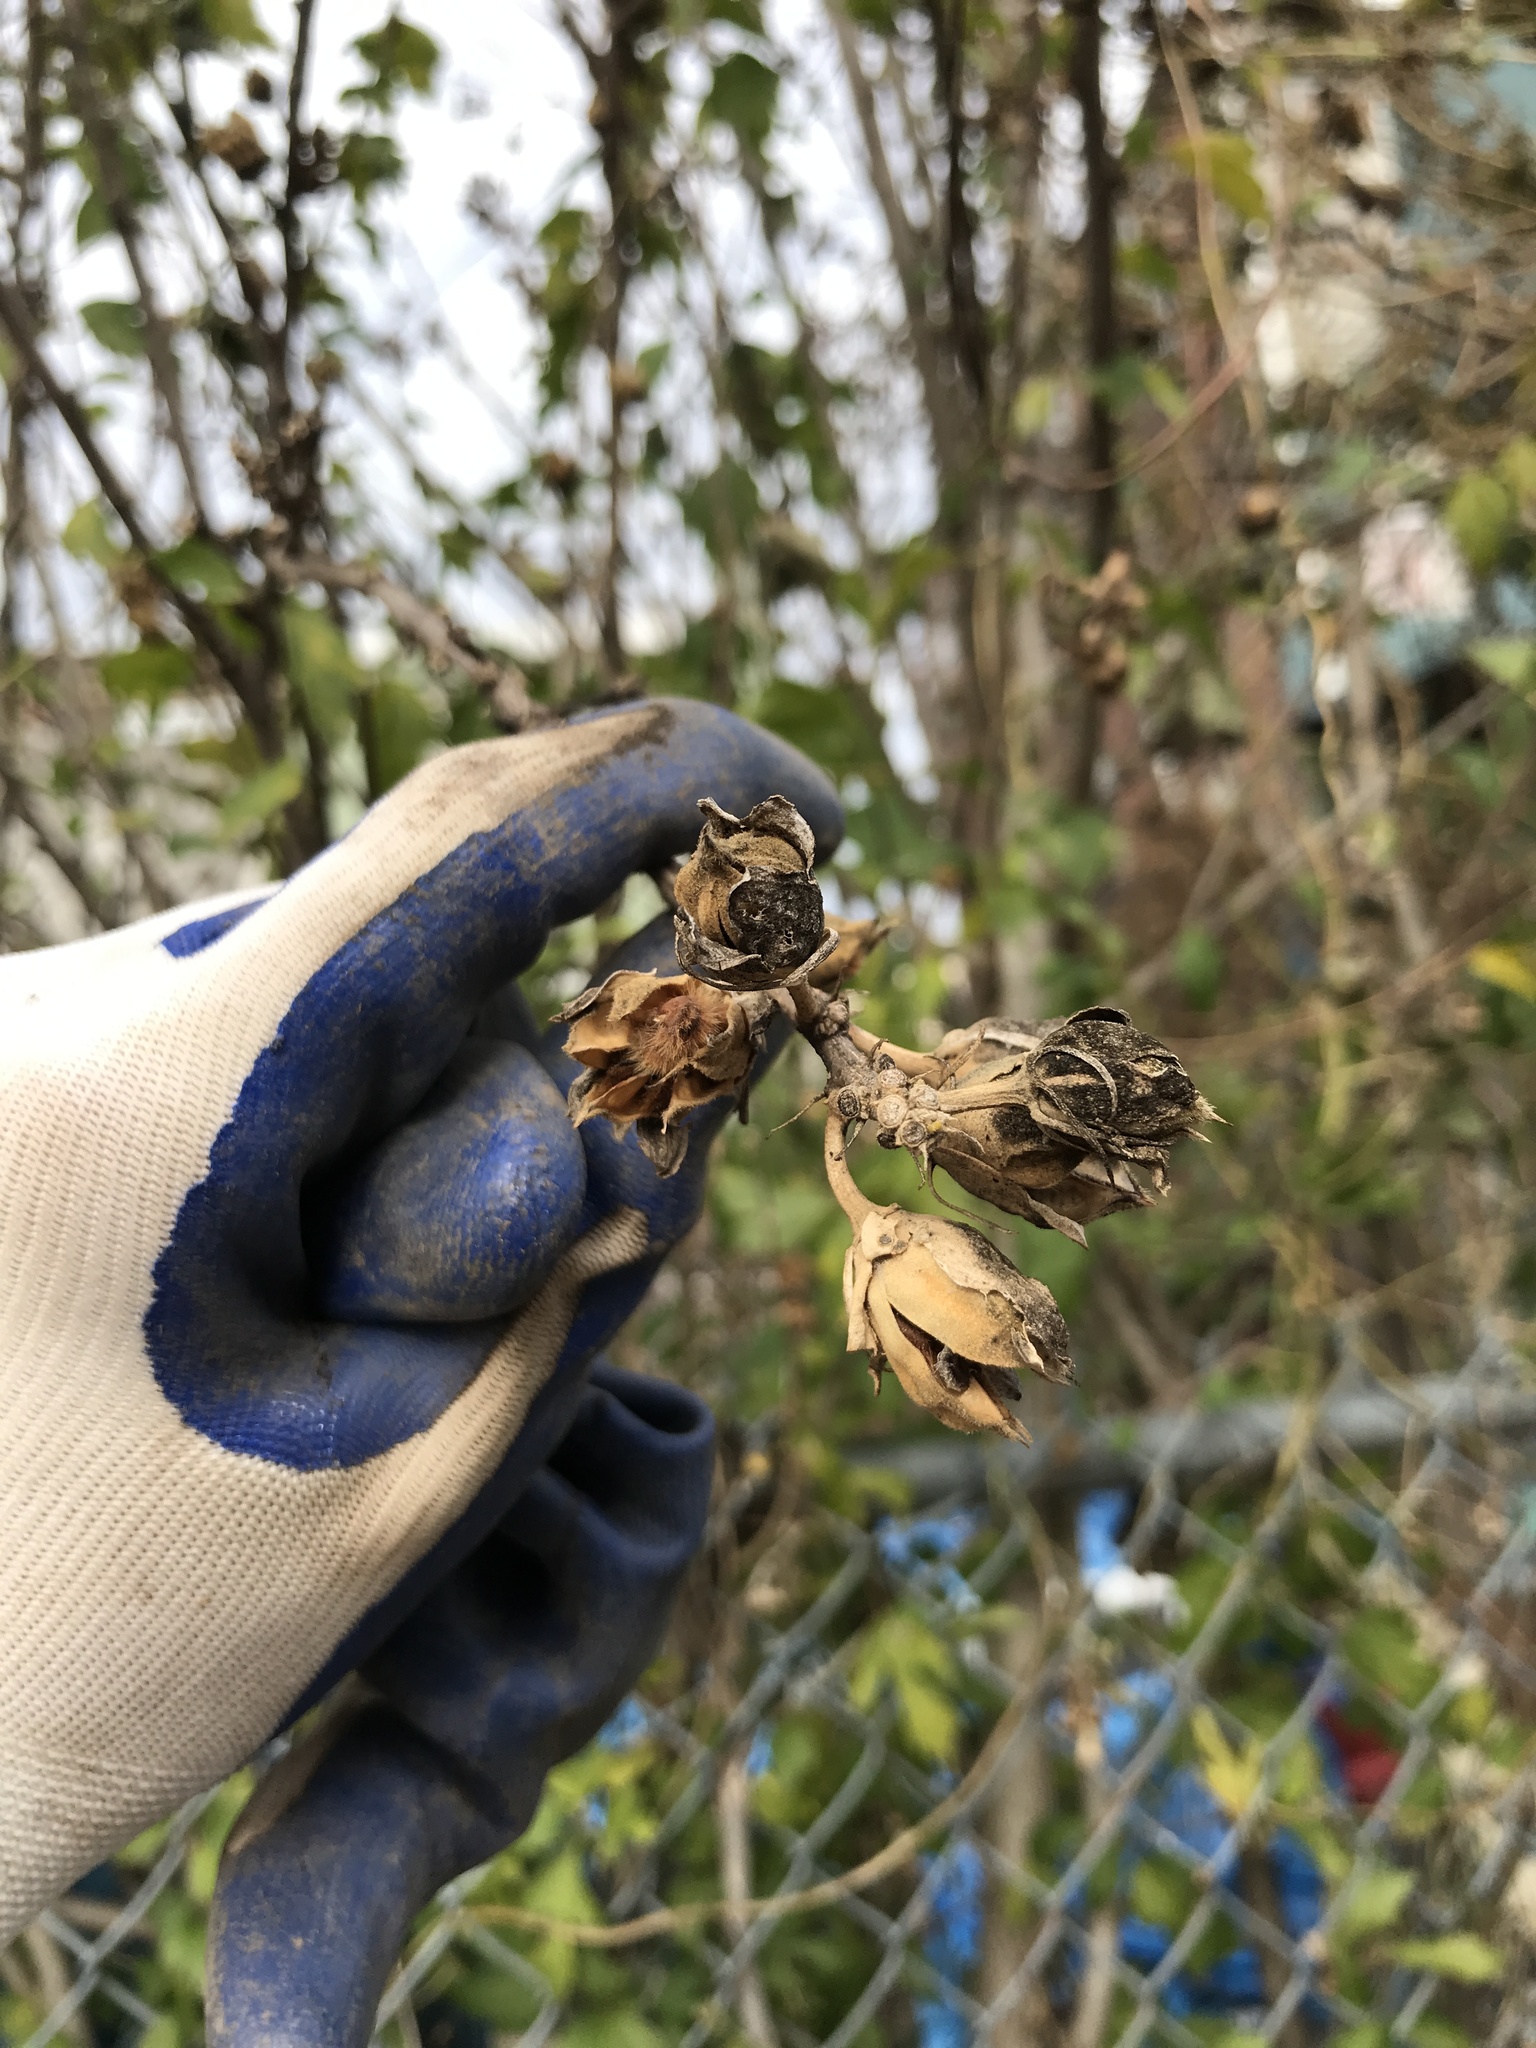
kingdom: Plantae
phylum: Tracheophyta
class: Magnoliopsida
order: Malvales
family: Malvaceae
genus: Hibiscus
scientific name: Hibiscus syriacus
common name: Syrian ketmia
